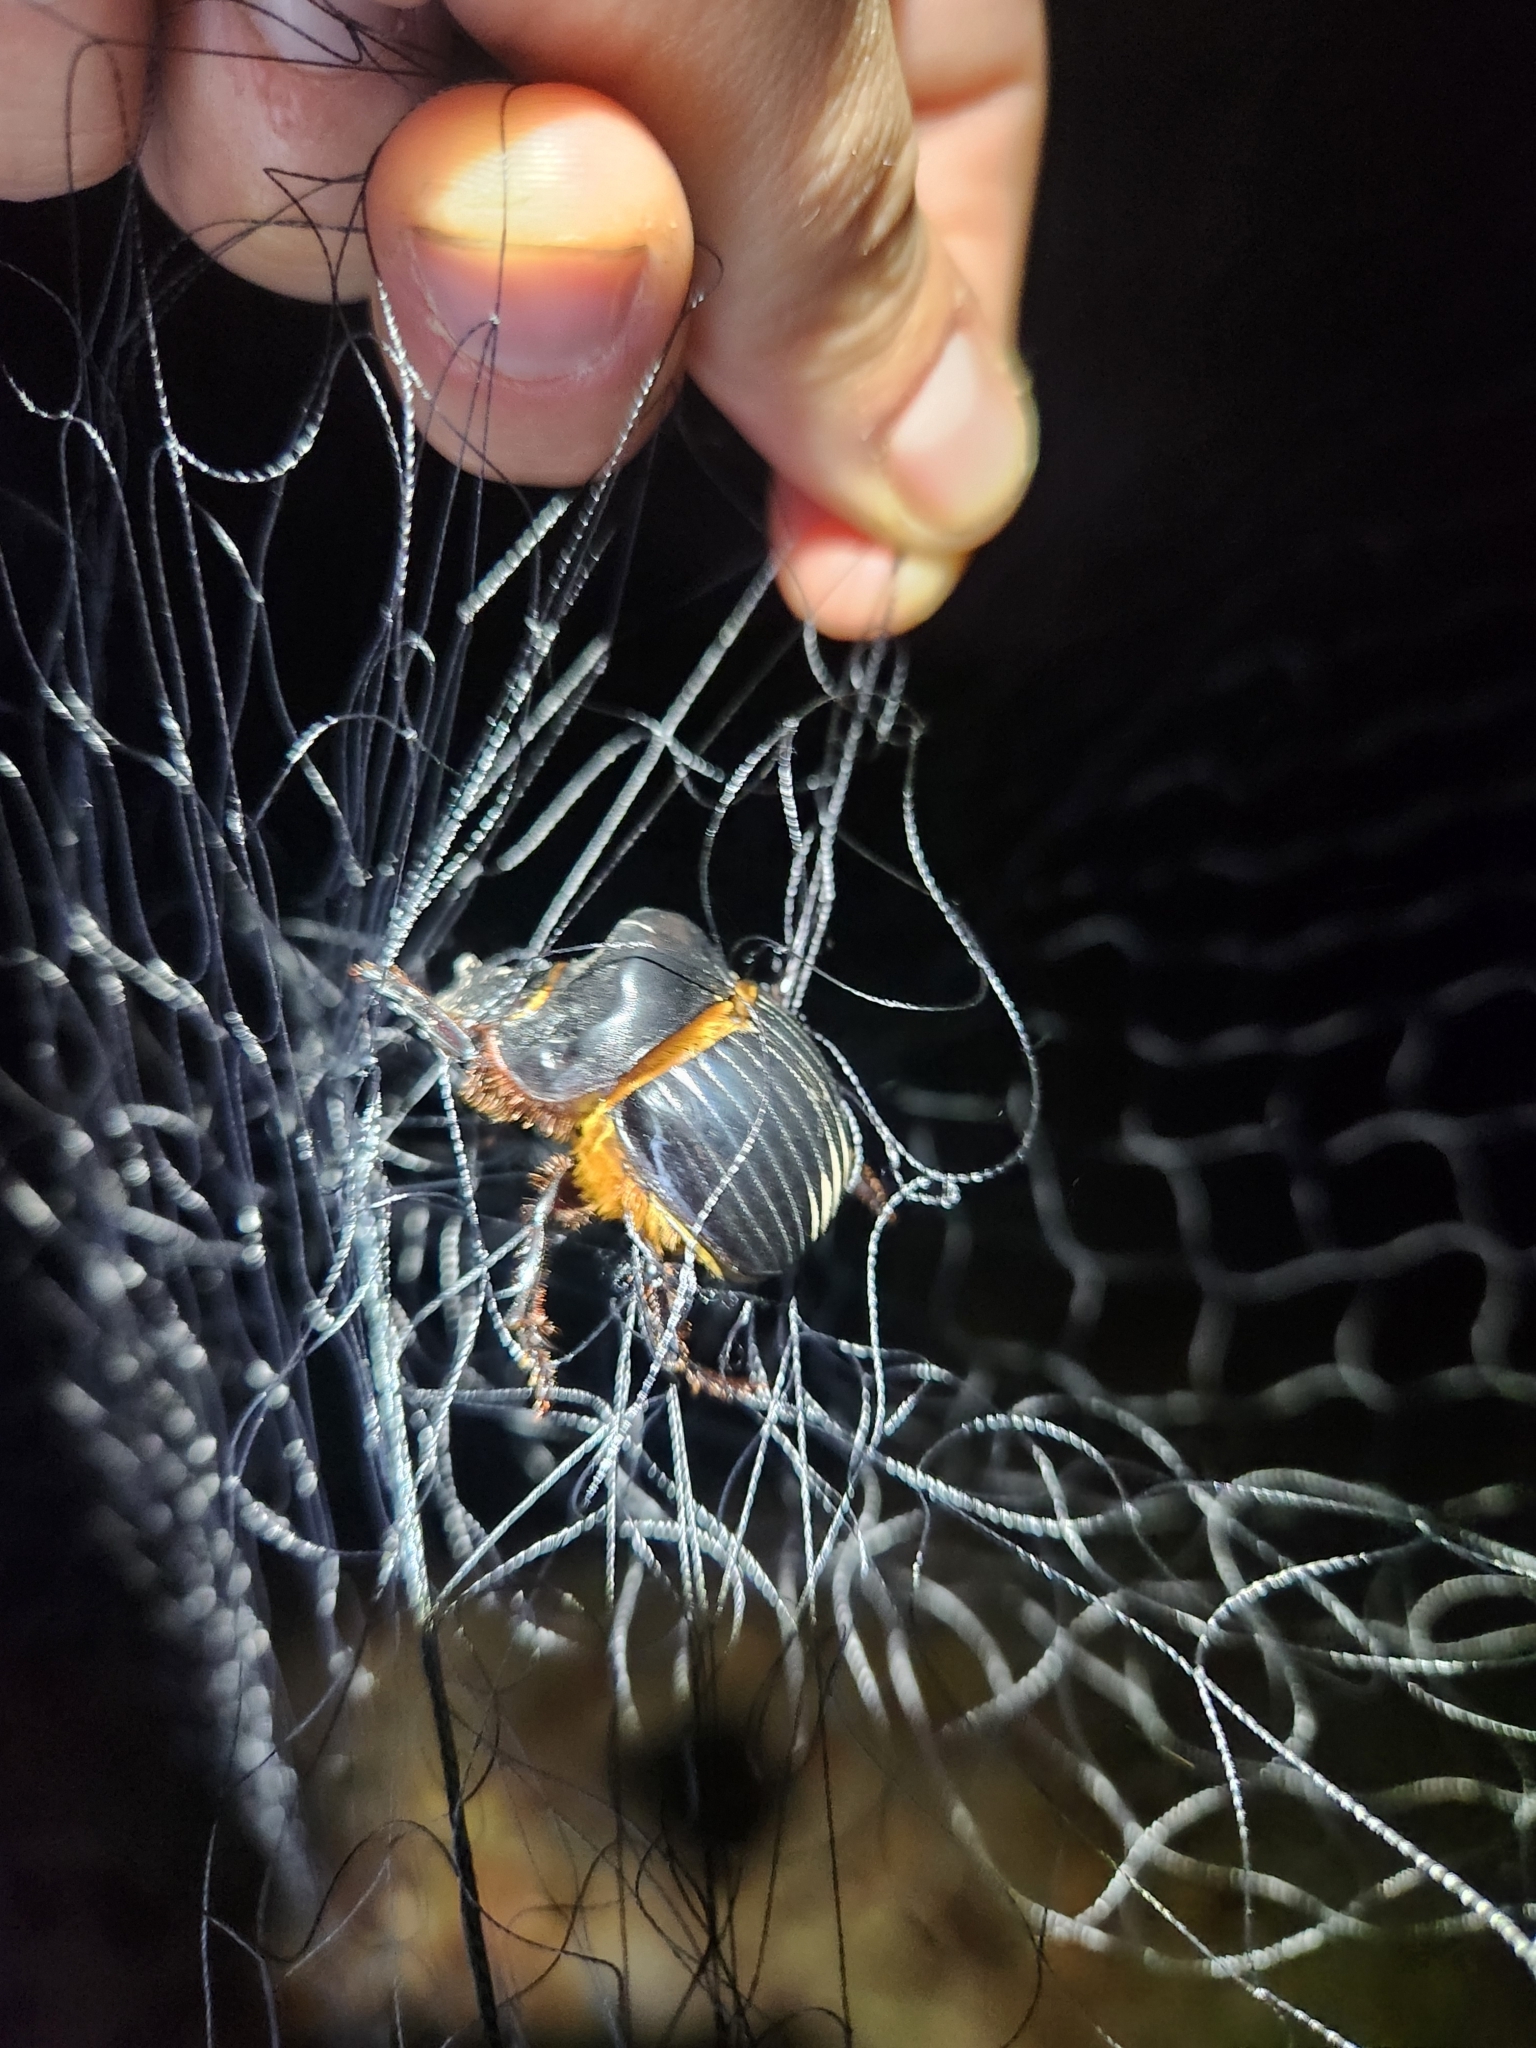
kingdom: Animalia
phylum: Arthropoda
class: Insecta
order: Coleoptera
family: Scarabaeidae
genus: Dichotomius
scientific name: Dichotomius carolinus
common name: Carolina copris
